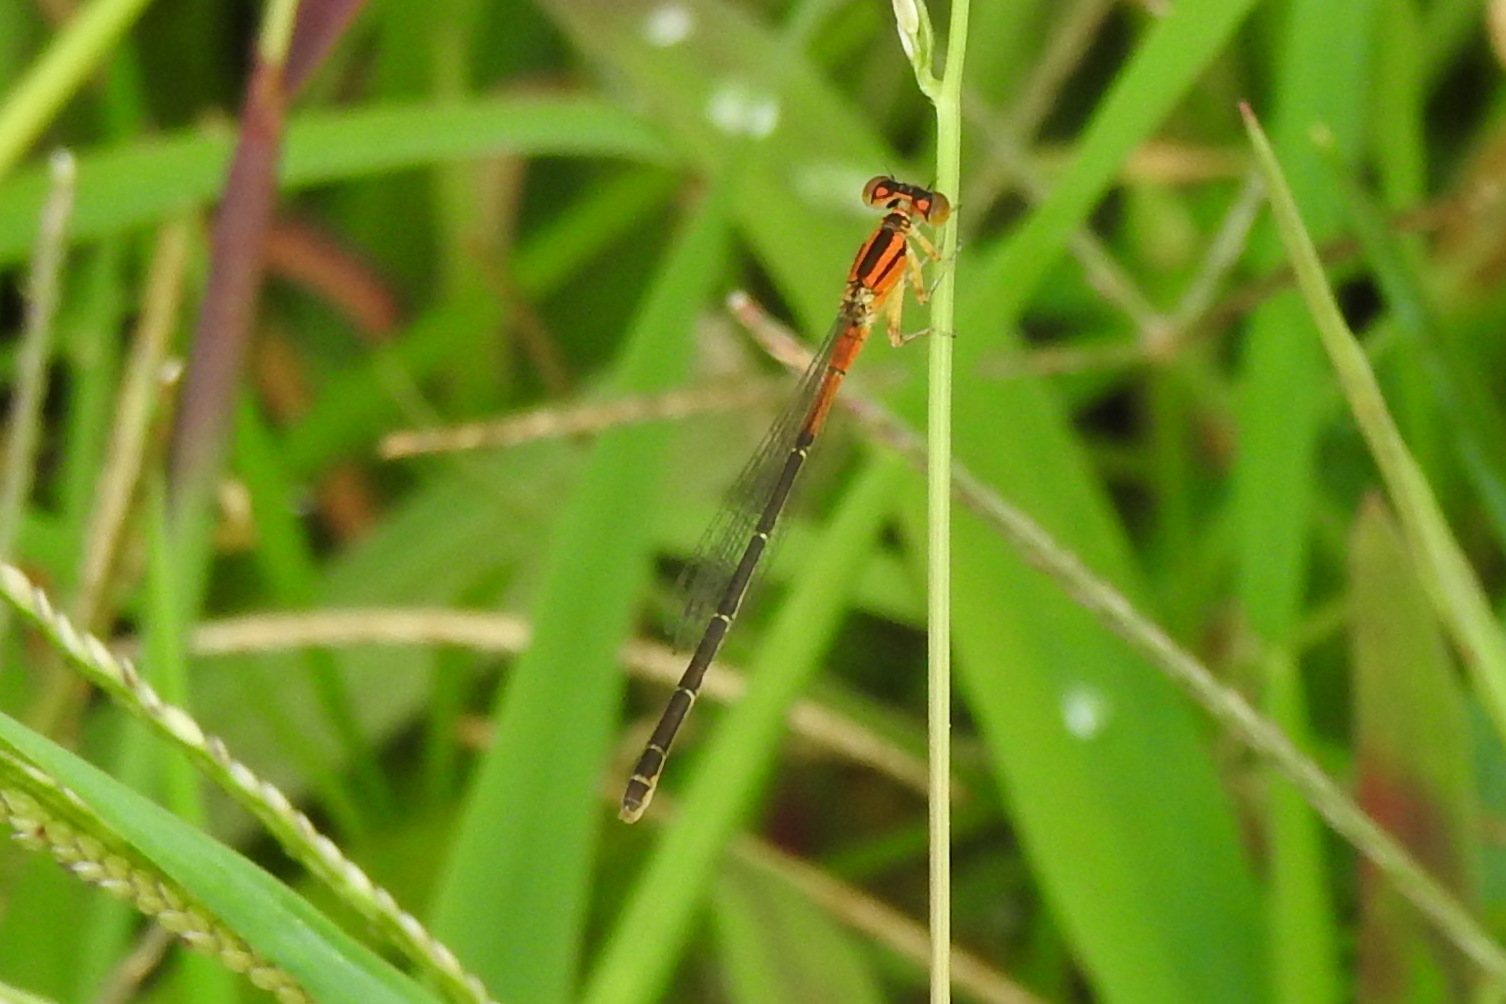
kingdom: Animalia
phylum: Arthropoda
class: Insecta
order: Odonata
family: Coenagrionidae
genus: Ischnura
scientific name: Ischnura verticalis
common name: Eastern forktail
